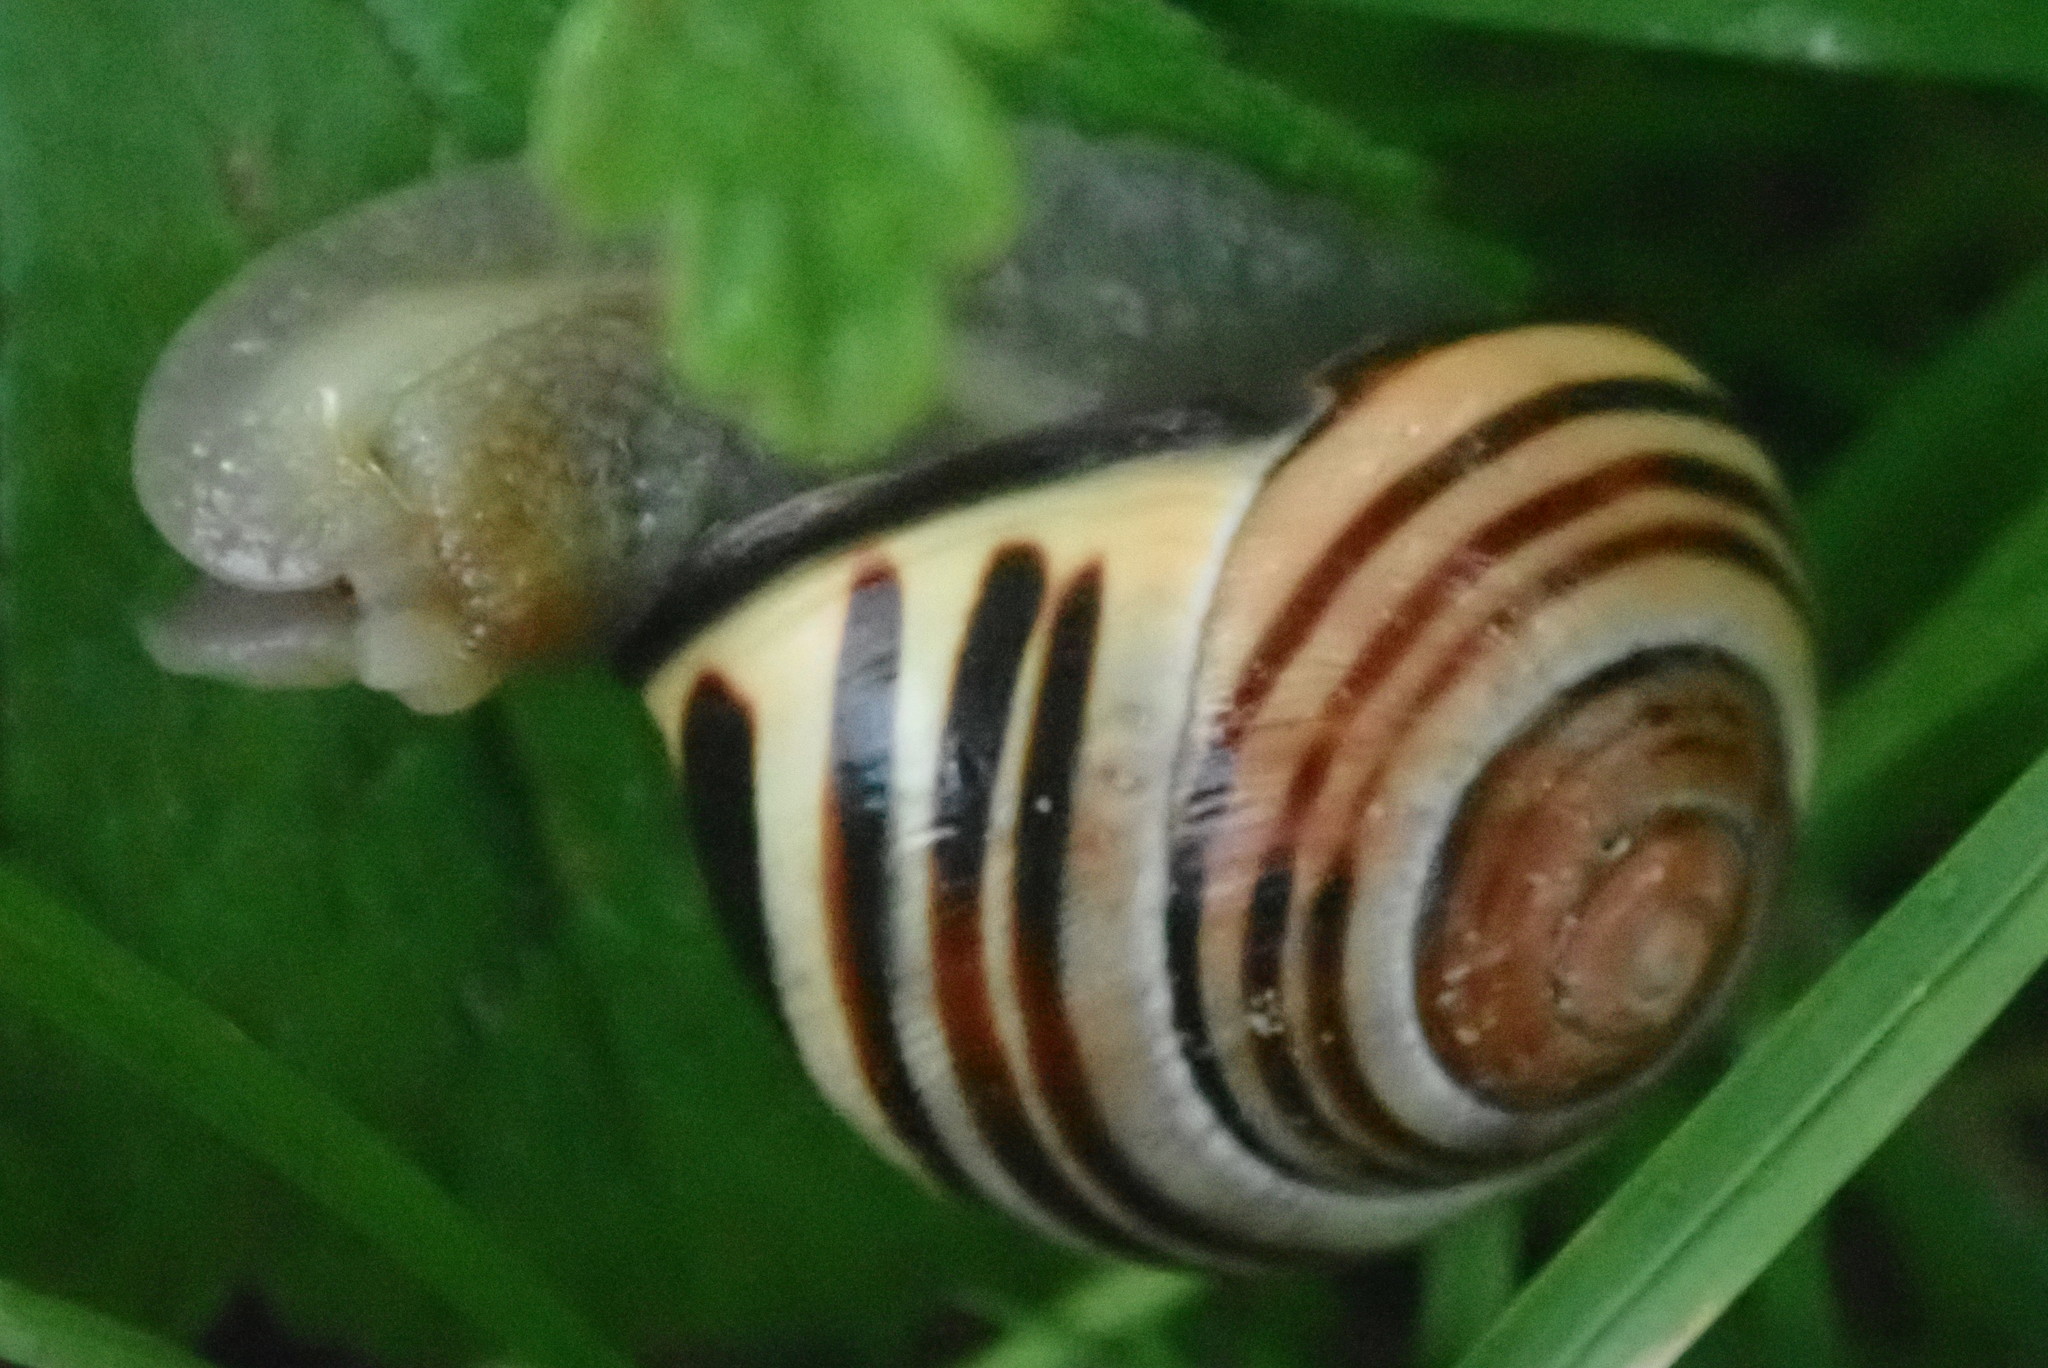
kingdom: Animalia
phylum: Mollusca
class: Gastropoda
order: Stylommatophora
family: Helicidae
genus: Cepaea
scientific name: Cepaea nemoralis
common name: Grovesnail
